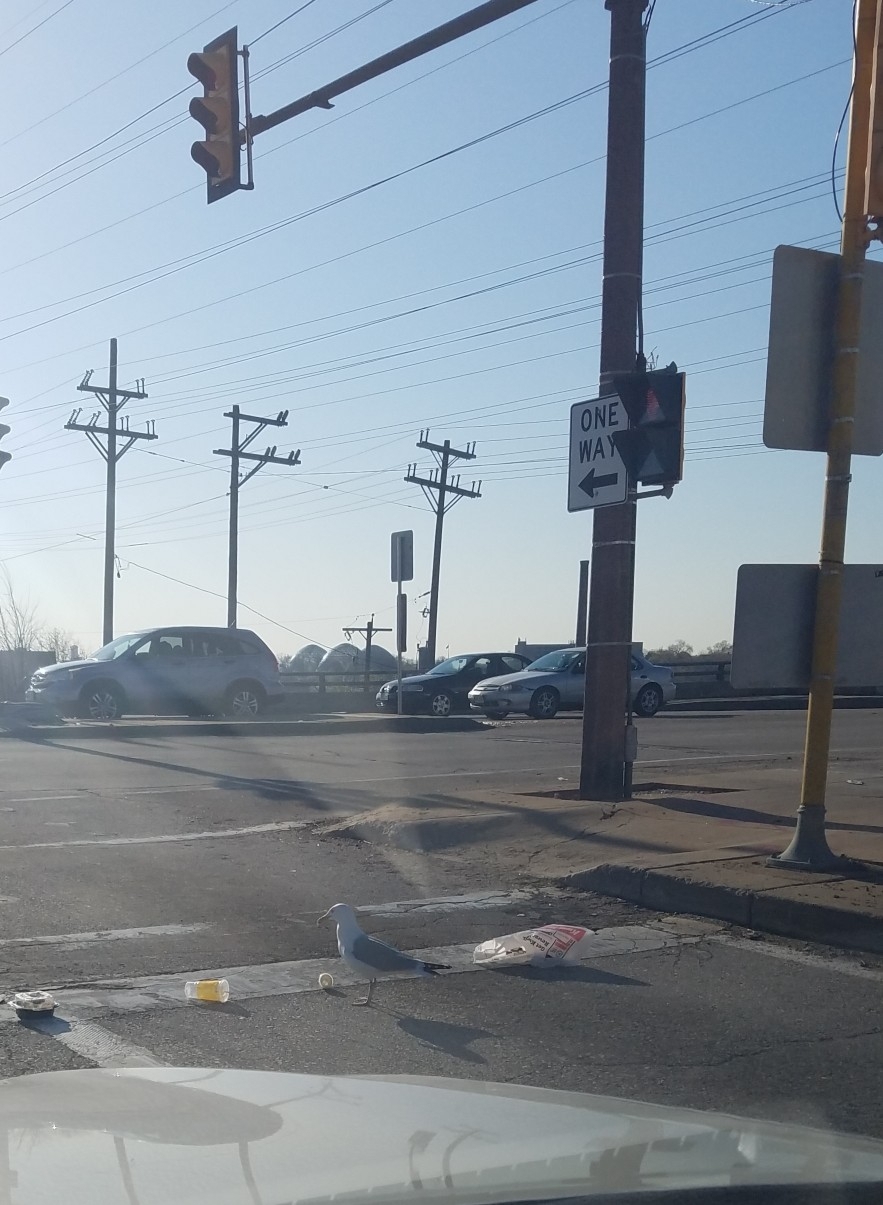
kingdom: Animalia
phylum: Chordata
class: Aves
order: Charadriiformes
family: Laridae
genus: Larus
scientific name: Larus argentatus
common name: Herring gull
